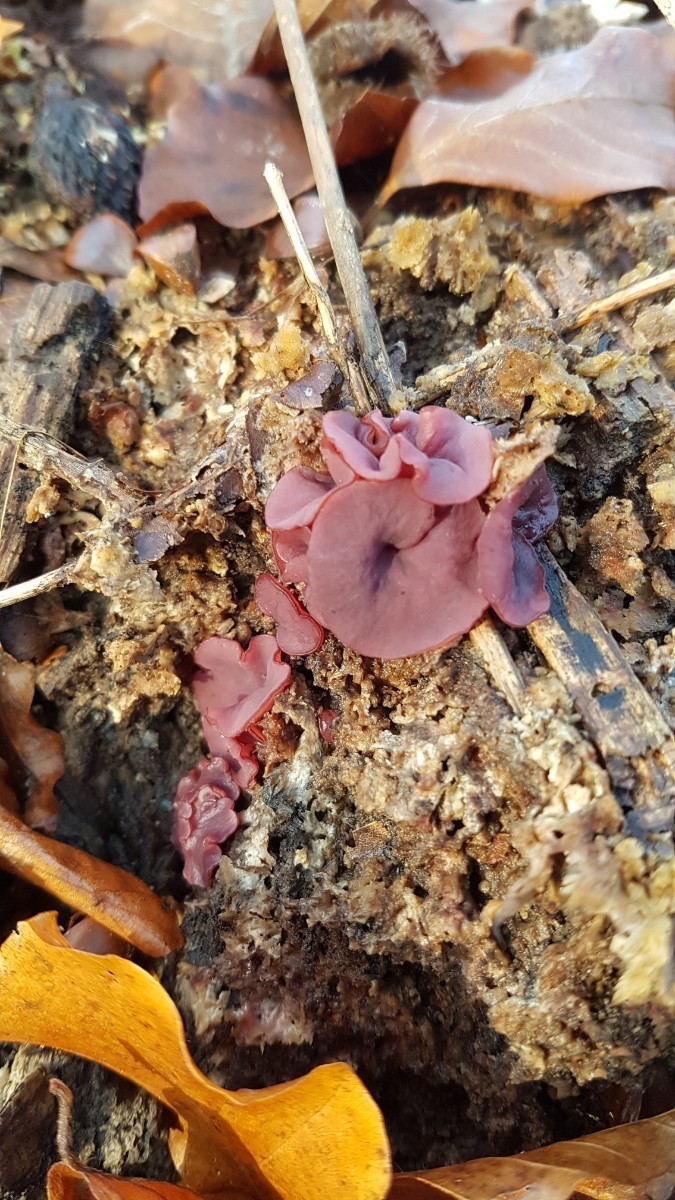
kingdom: Fungi
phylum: Ascomycota
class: Leotiomycetes
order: Helotiales
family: Gelatinodiscaceae
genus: Ascocoryne
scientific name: Ascocoryne cylichnium
